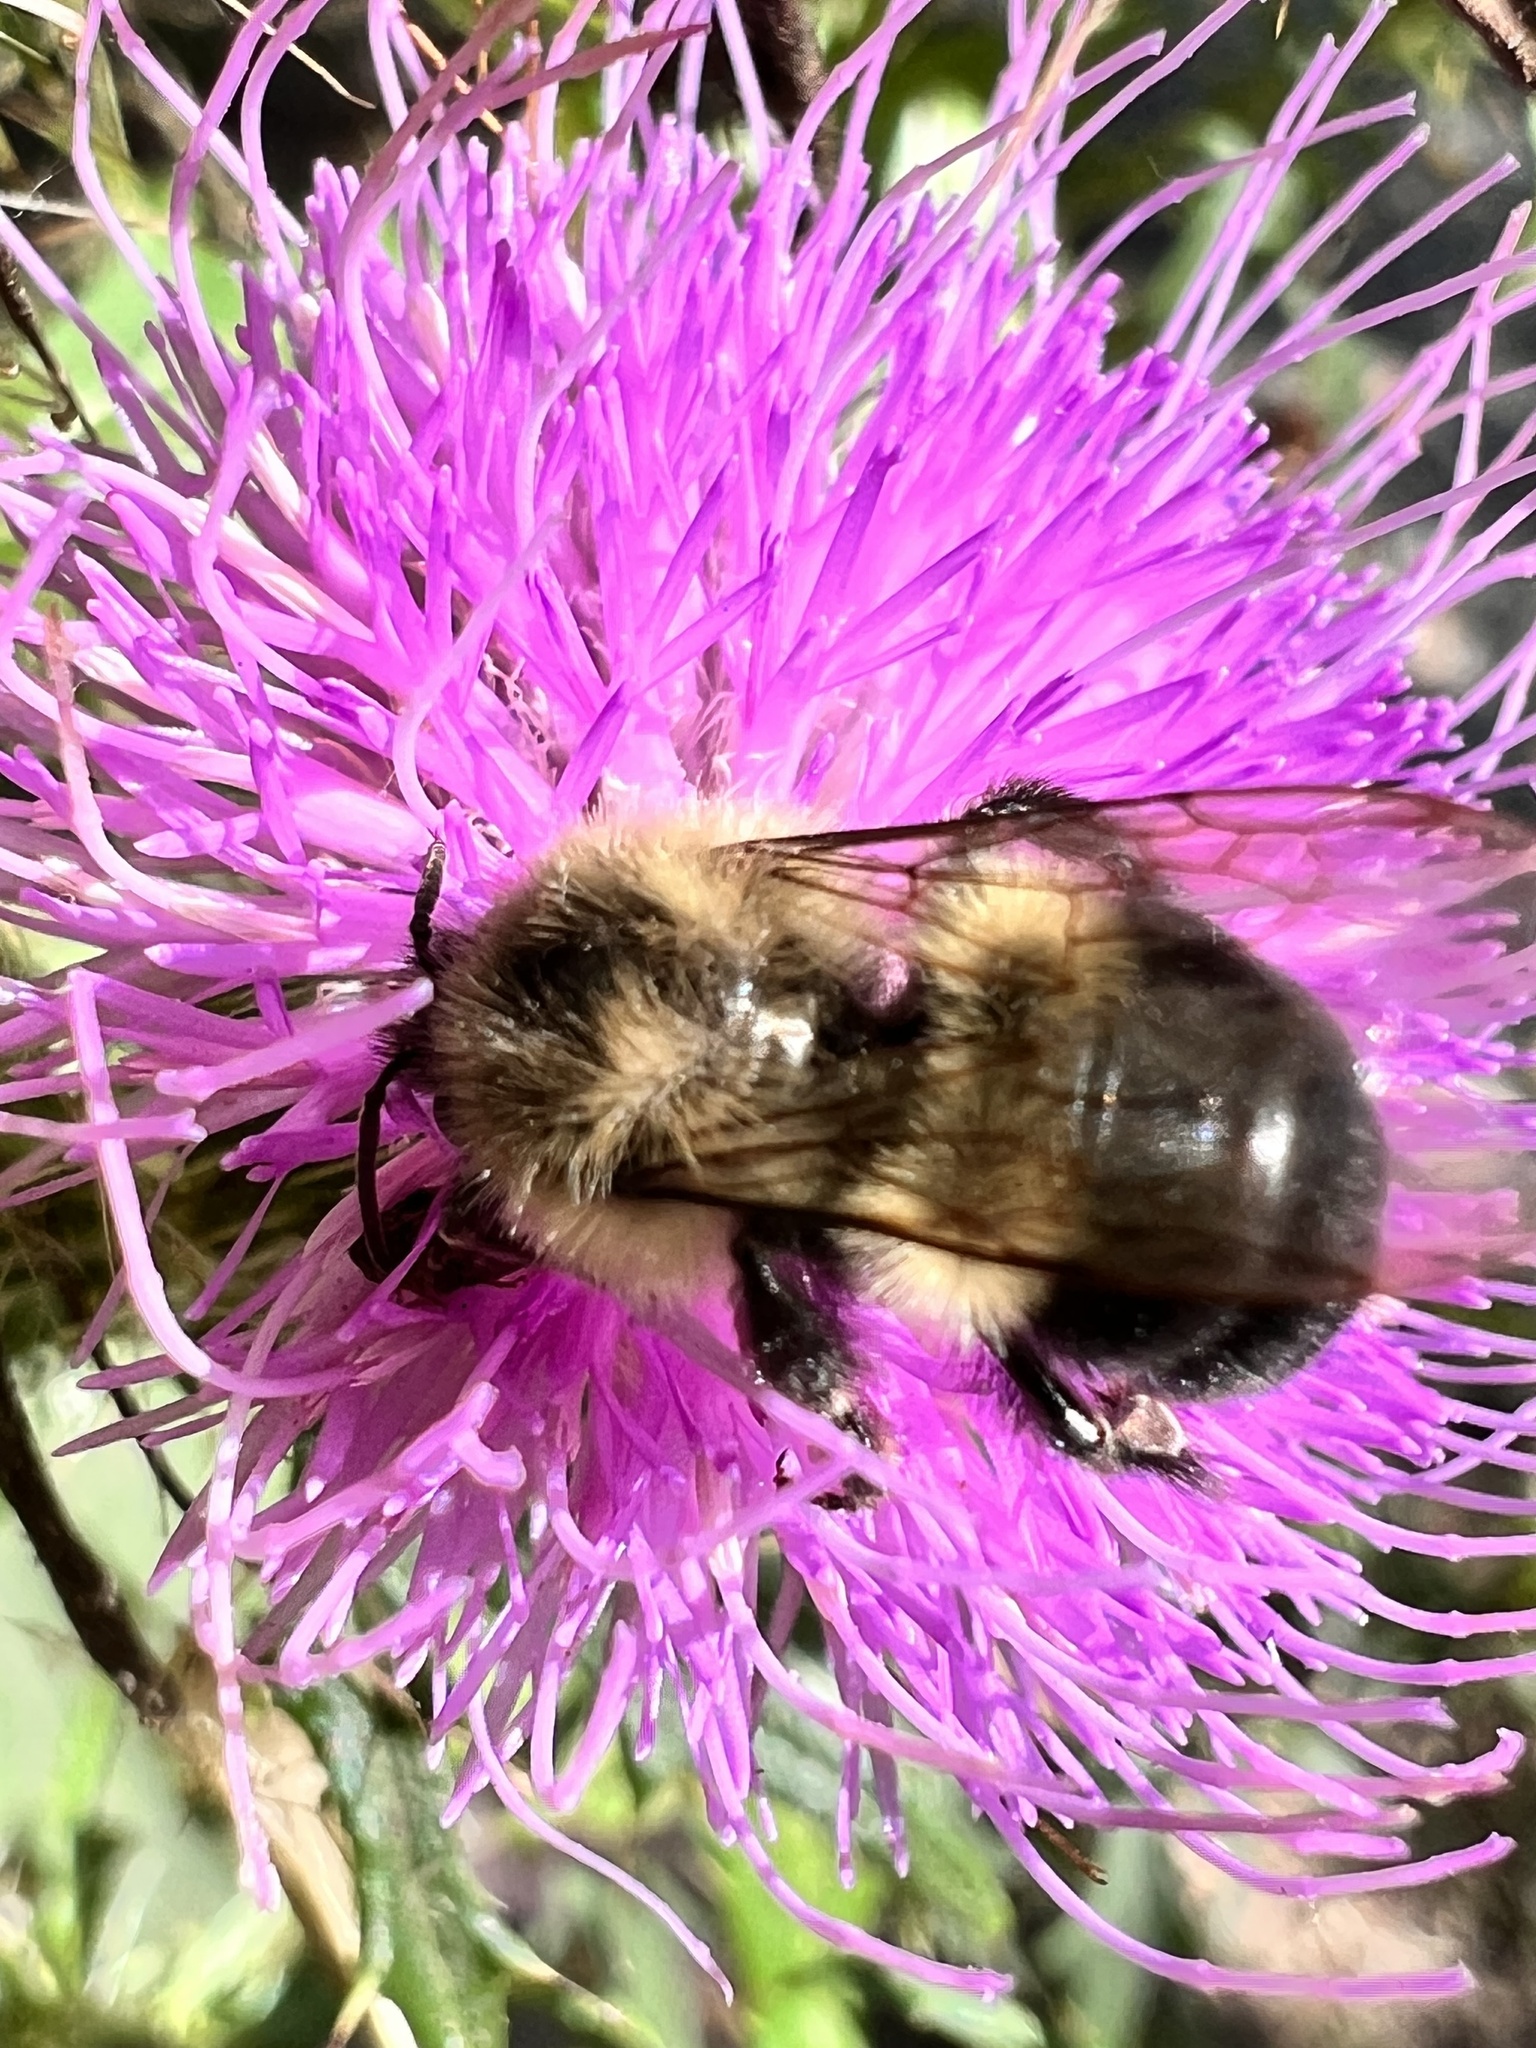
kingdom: Animalia
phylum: Arthropoda
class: Insecta
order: Hymenoptera
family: Apidae
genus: Bombus
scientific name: Bombus impatiens
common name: Common eastern bumble bee
